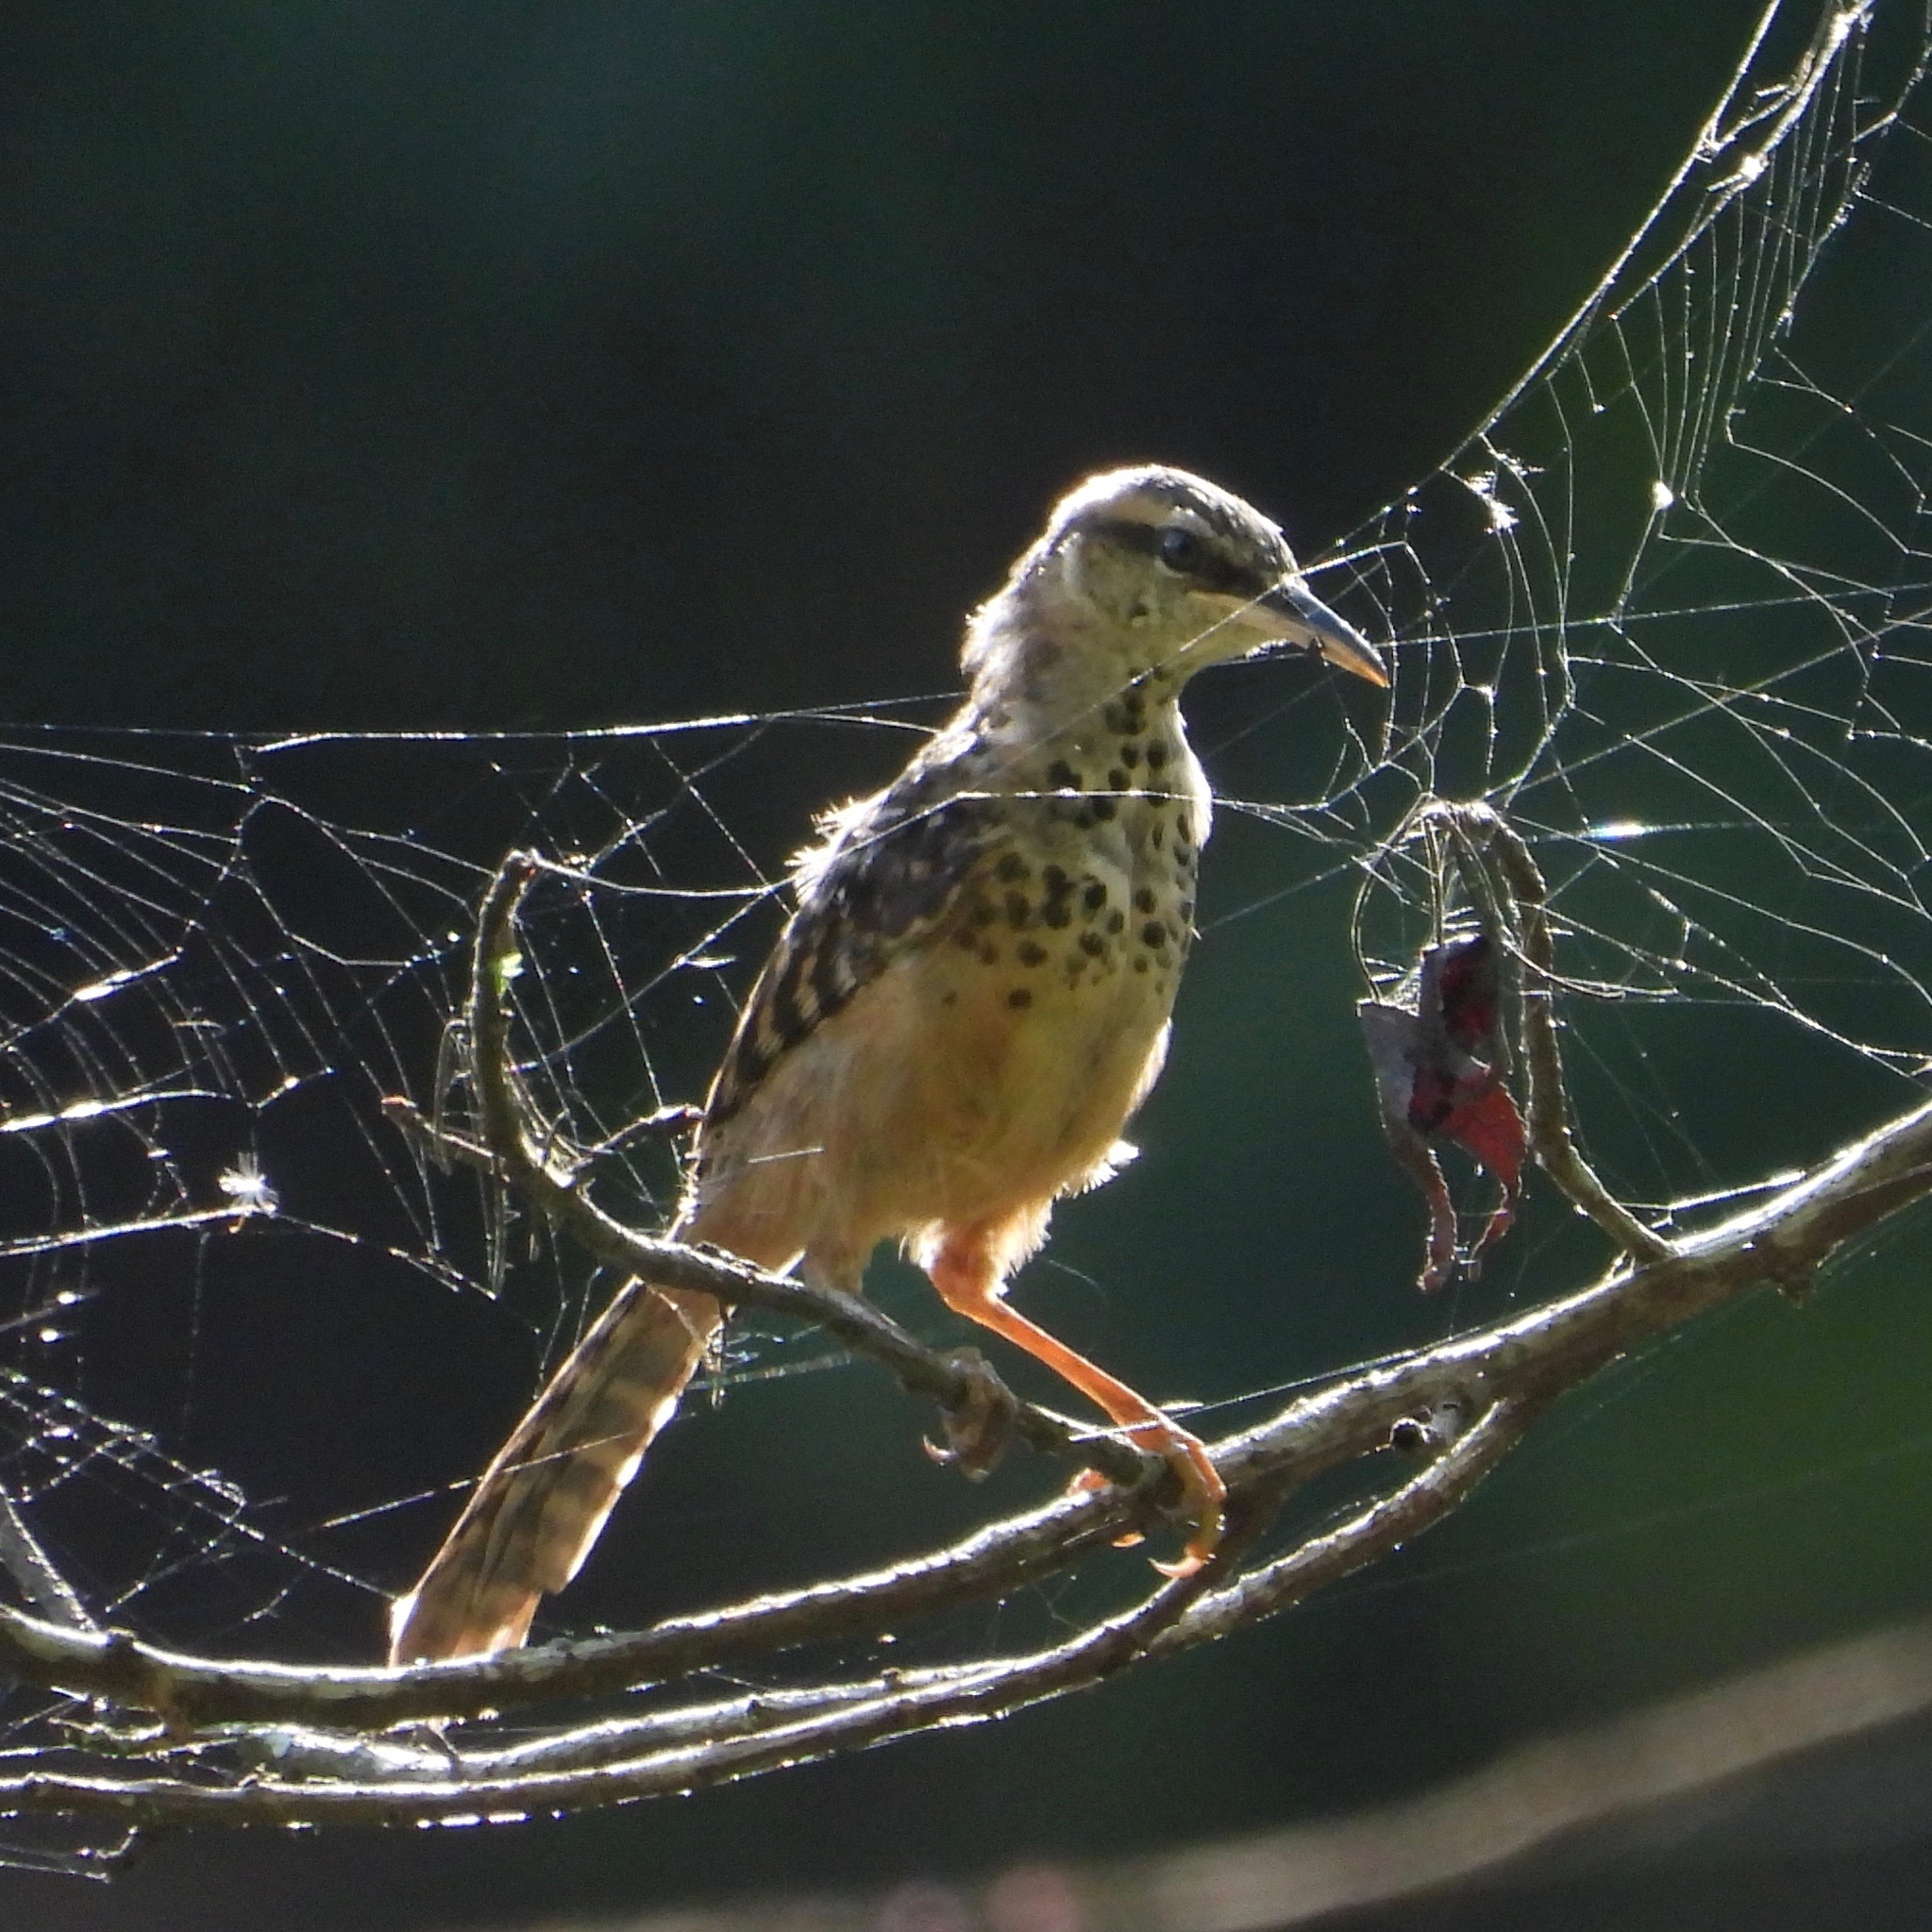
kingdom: Animalia
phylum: Chordata
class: Aves
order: Passeriformes
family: Troglodytidae
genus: Campylorhynchus
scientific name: Campylorhynchus zonatus
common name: Band-backed wren
